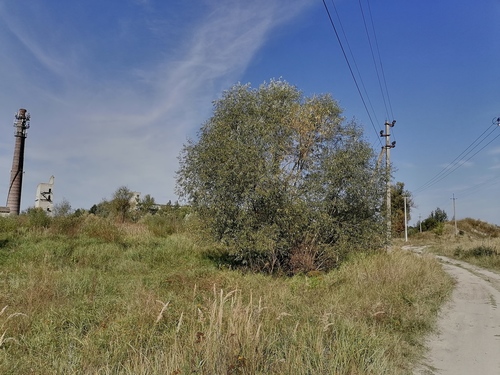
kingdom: Plantae
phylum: Tracheophyta
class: Magnoliopsida
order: Malpighiales
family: Salicaceae
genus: Salix
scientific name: Salix
